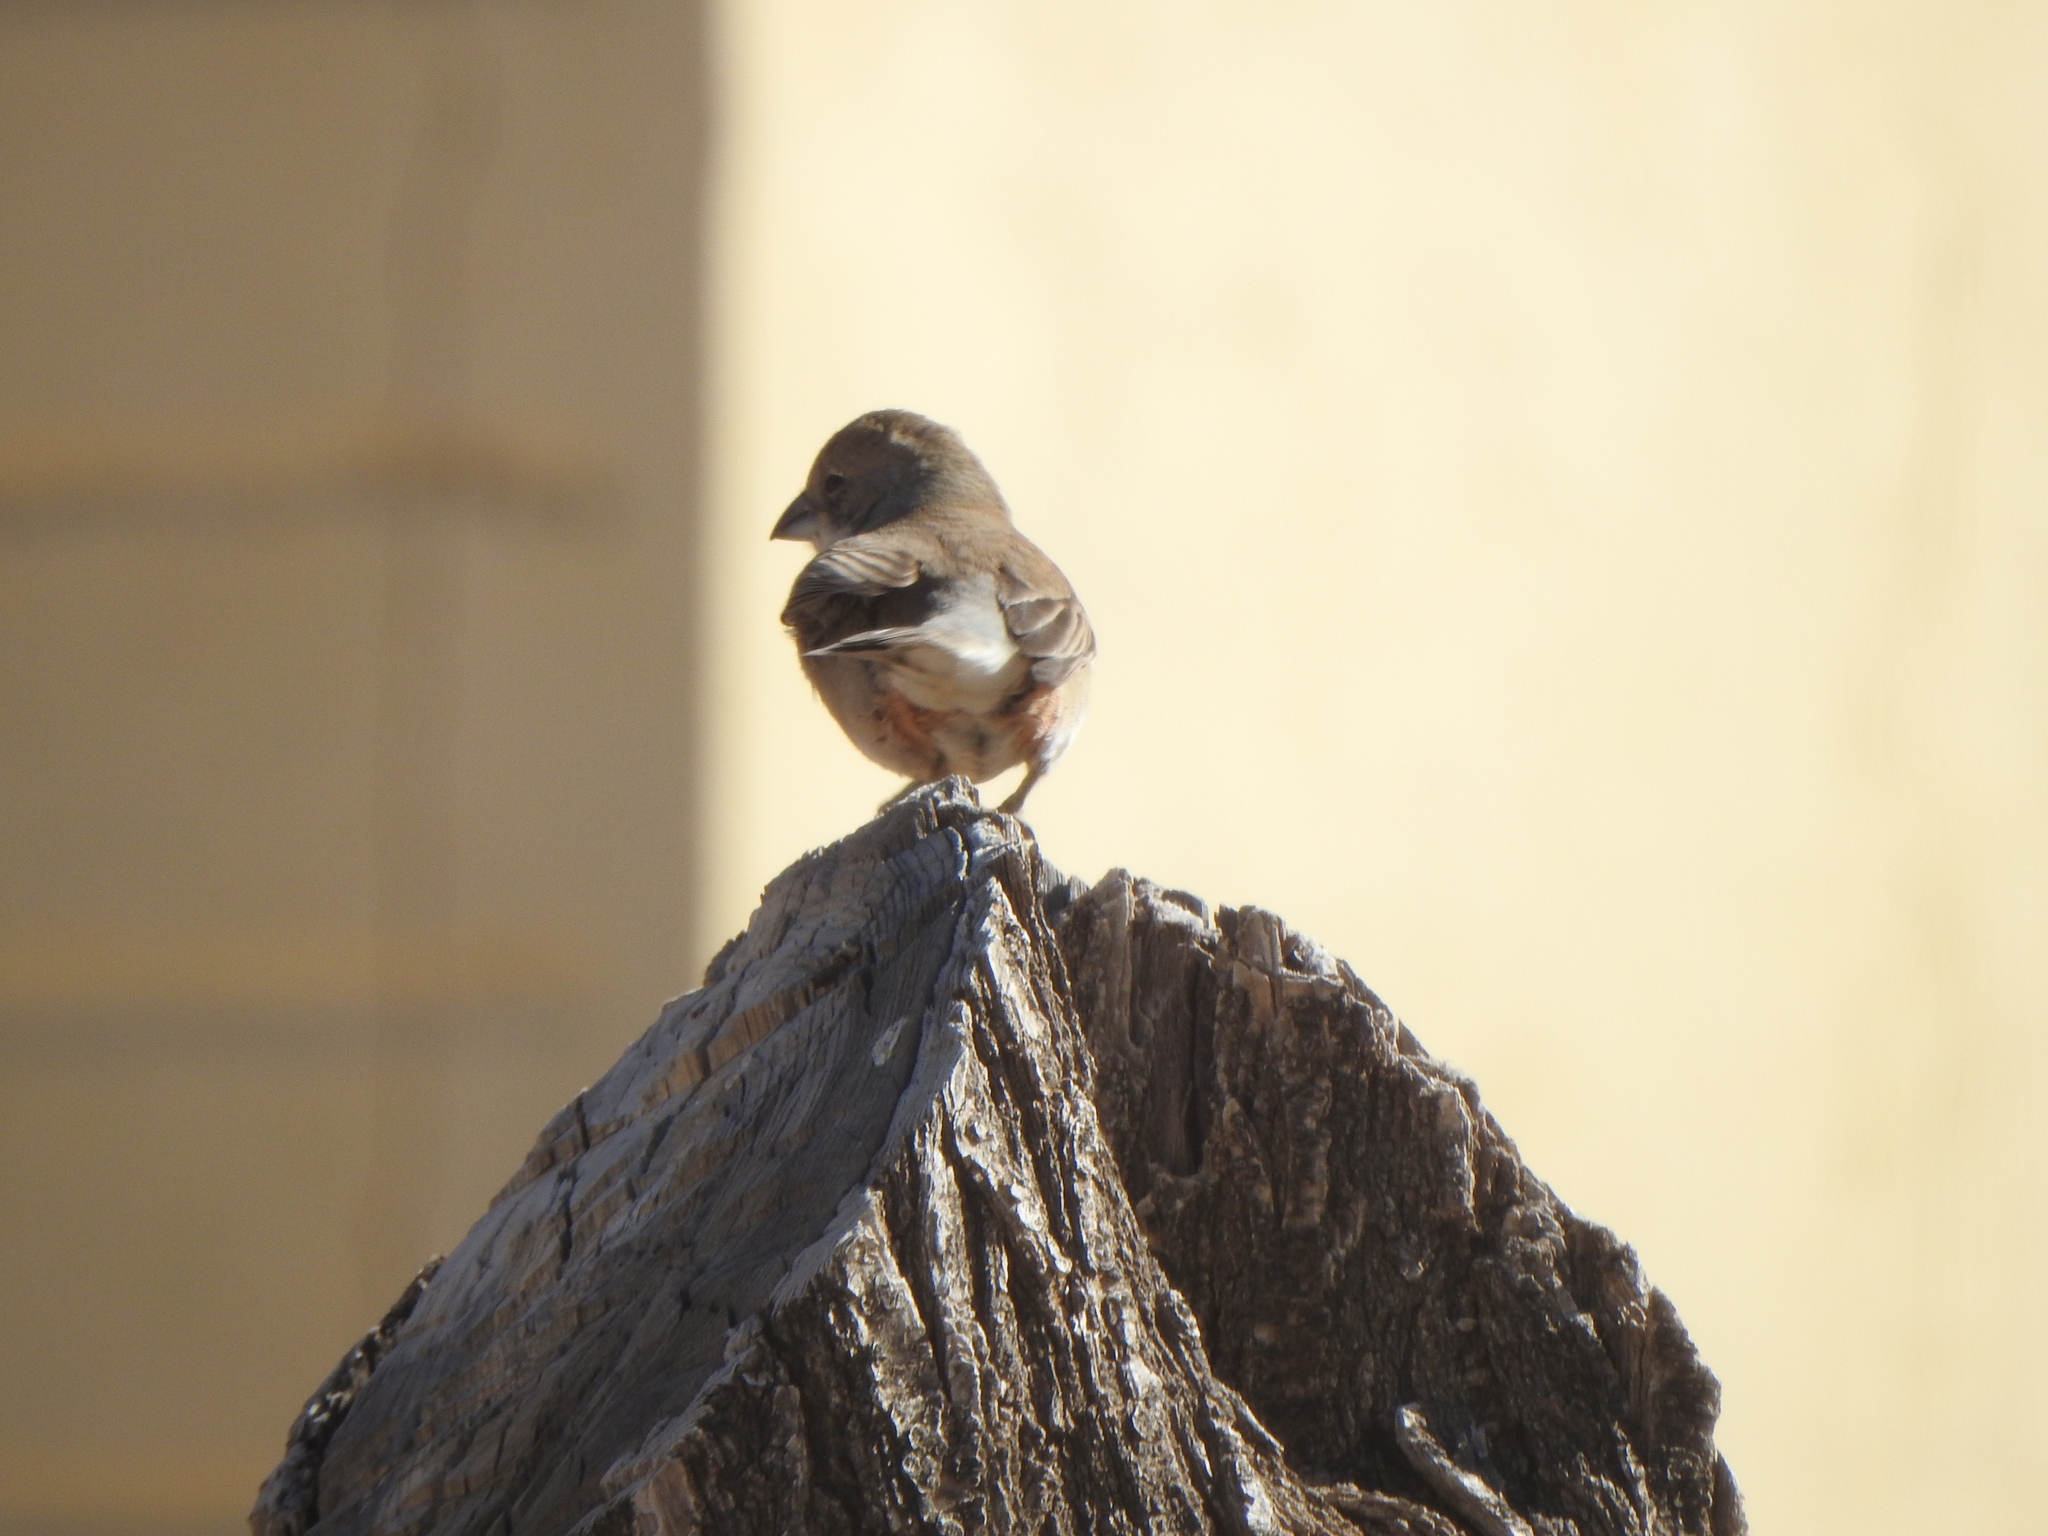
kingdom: Animalia
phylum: Chordata
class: Aves
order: Passeriformes
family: Thraupidae
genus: Diuca
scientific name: Diuca diuca
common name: Common diuca finch
